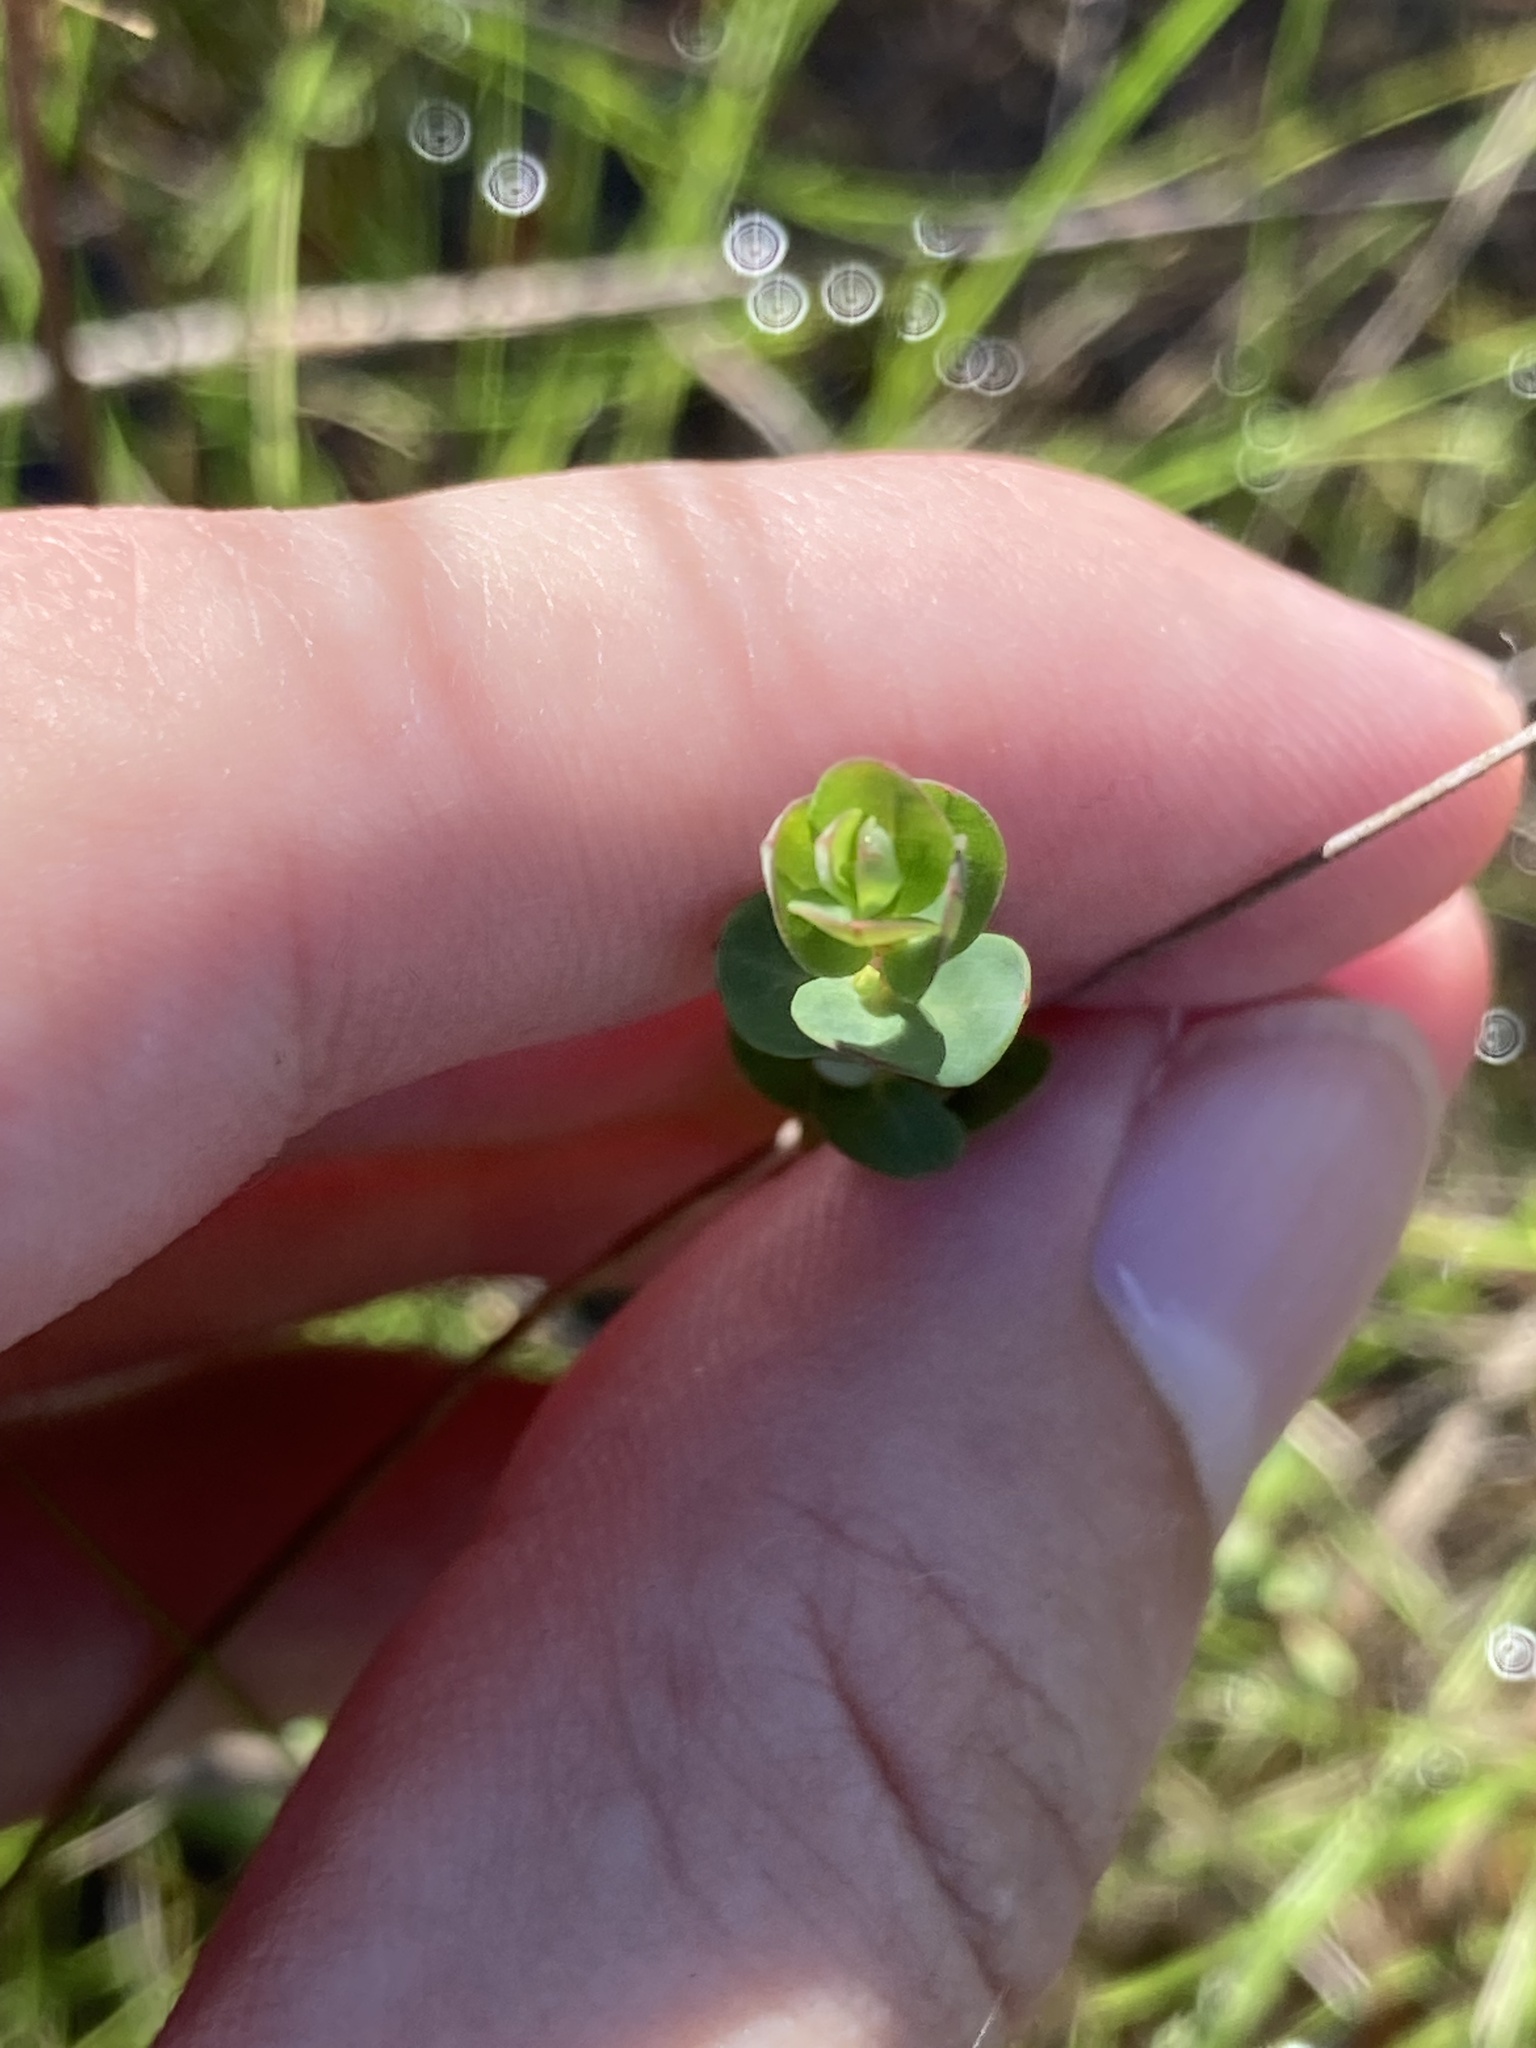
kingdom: Plantae
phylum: Tracheophyta
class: Magnoliopsida
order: Malpighiales
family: Hypericaceae
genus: Hypericum
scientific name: Hypericum fasciculatum
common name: Peelbark st. john's wort
